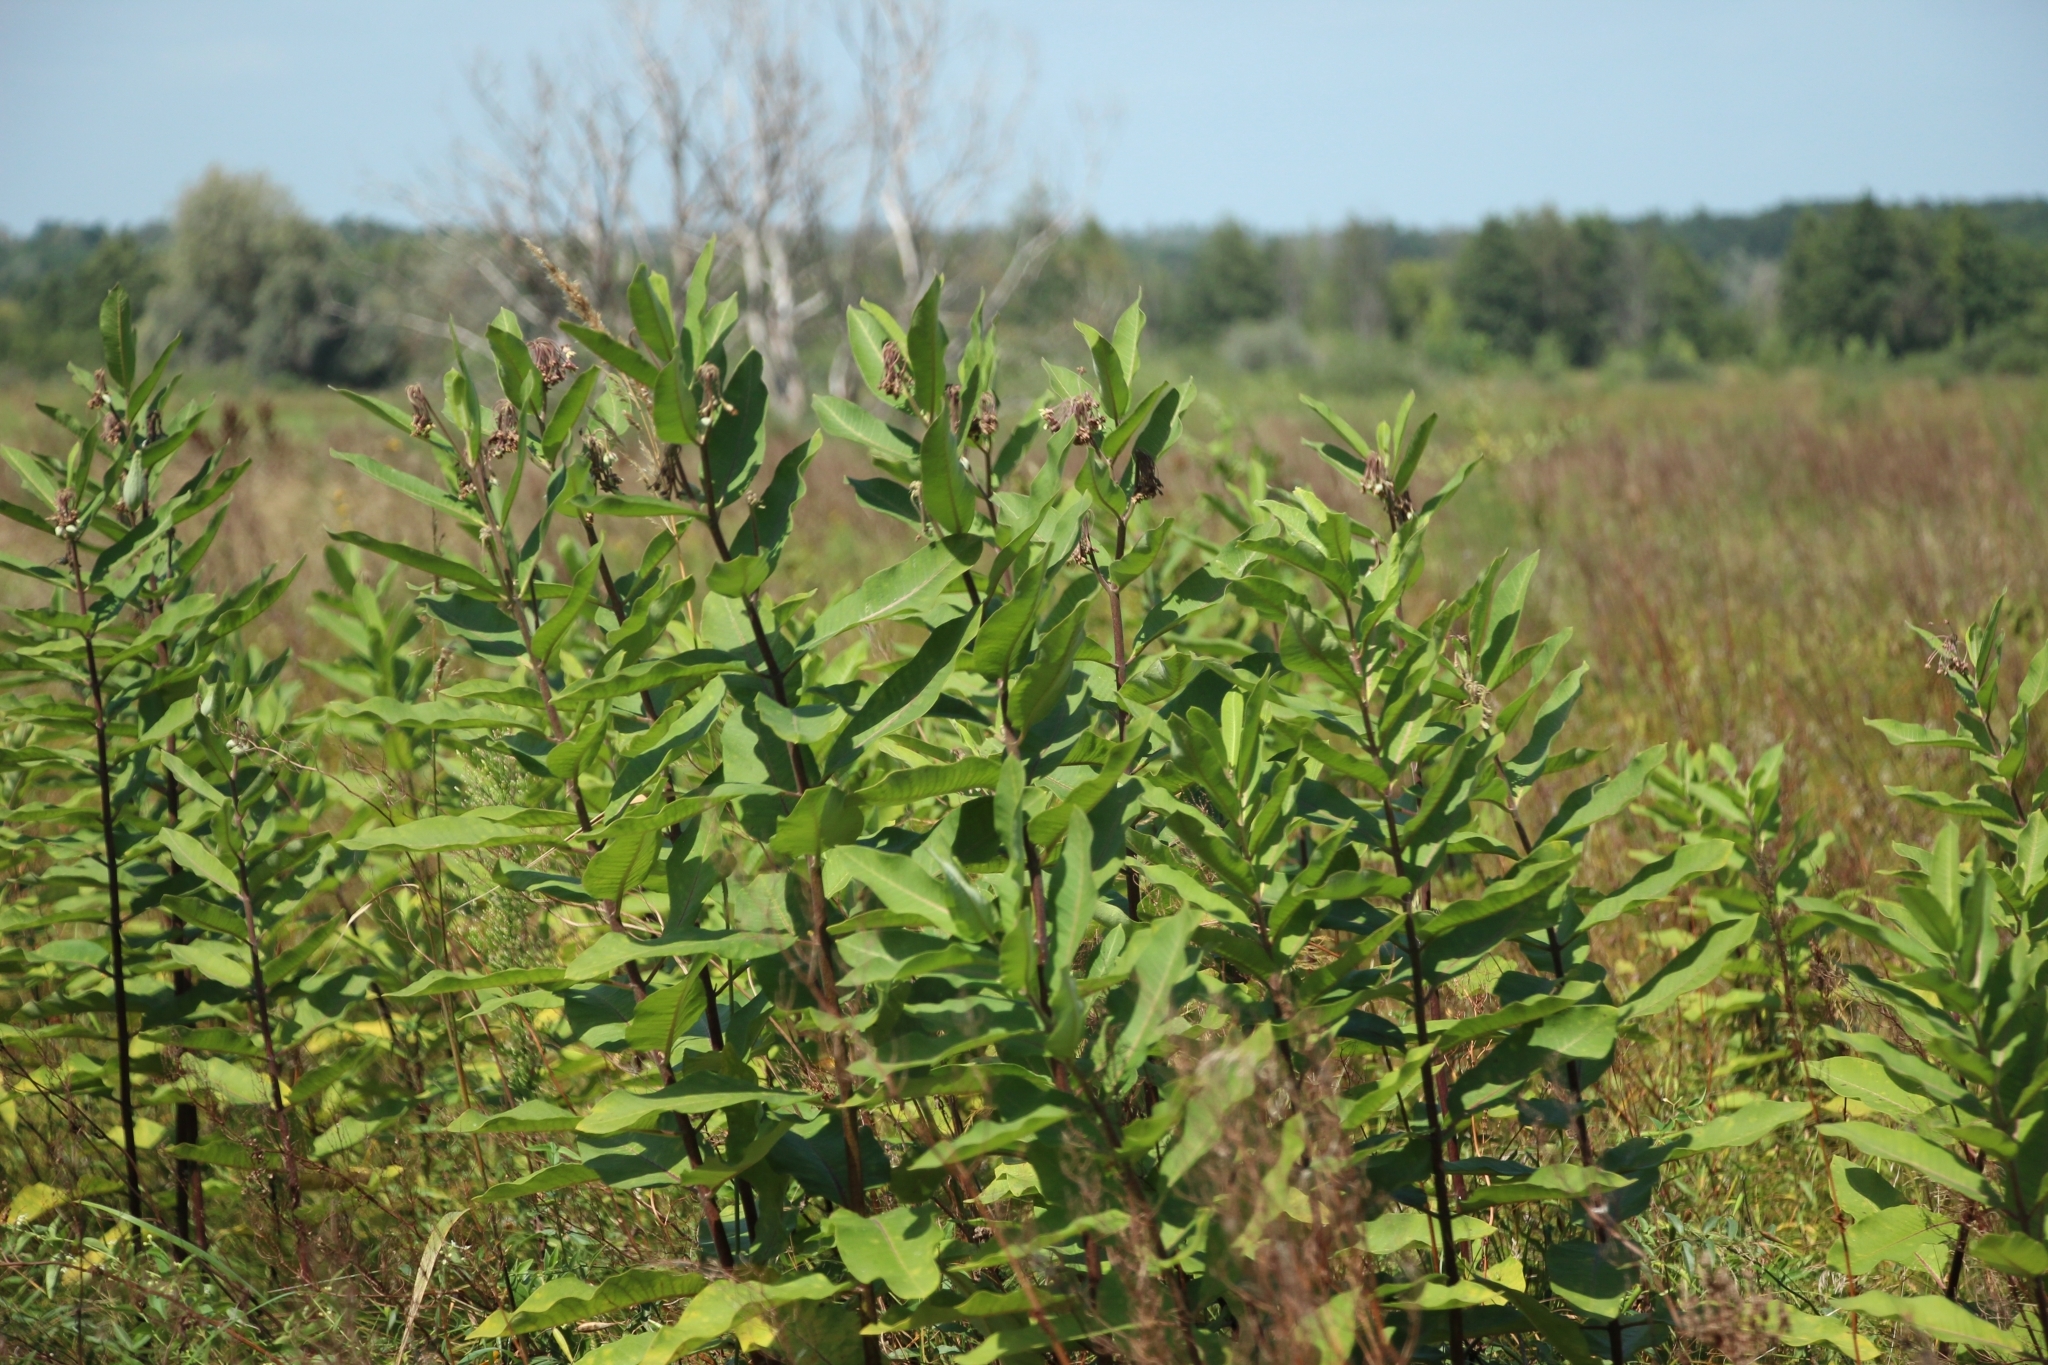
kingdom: Plantae
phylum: Tracheophyta
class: Magnoliopsida
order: Gentianales
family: Apocynaceae
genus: Asclepias
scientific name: Asclepias syriaca
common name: Common milkweed
